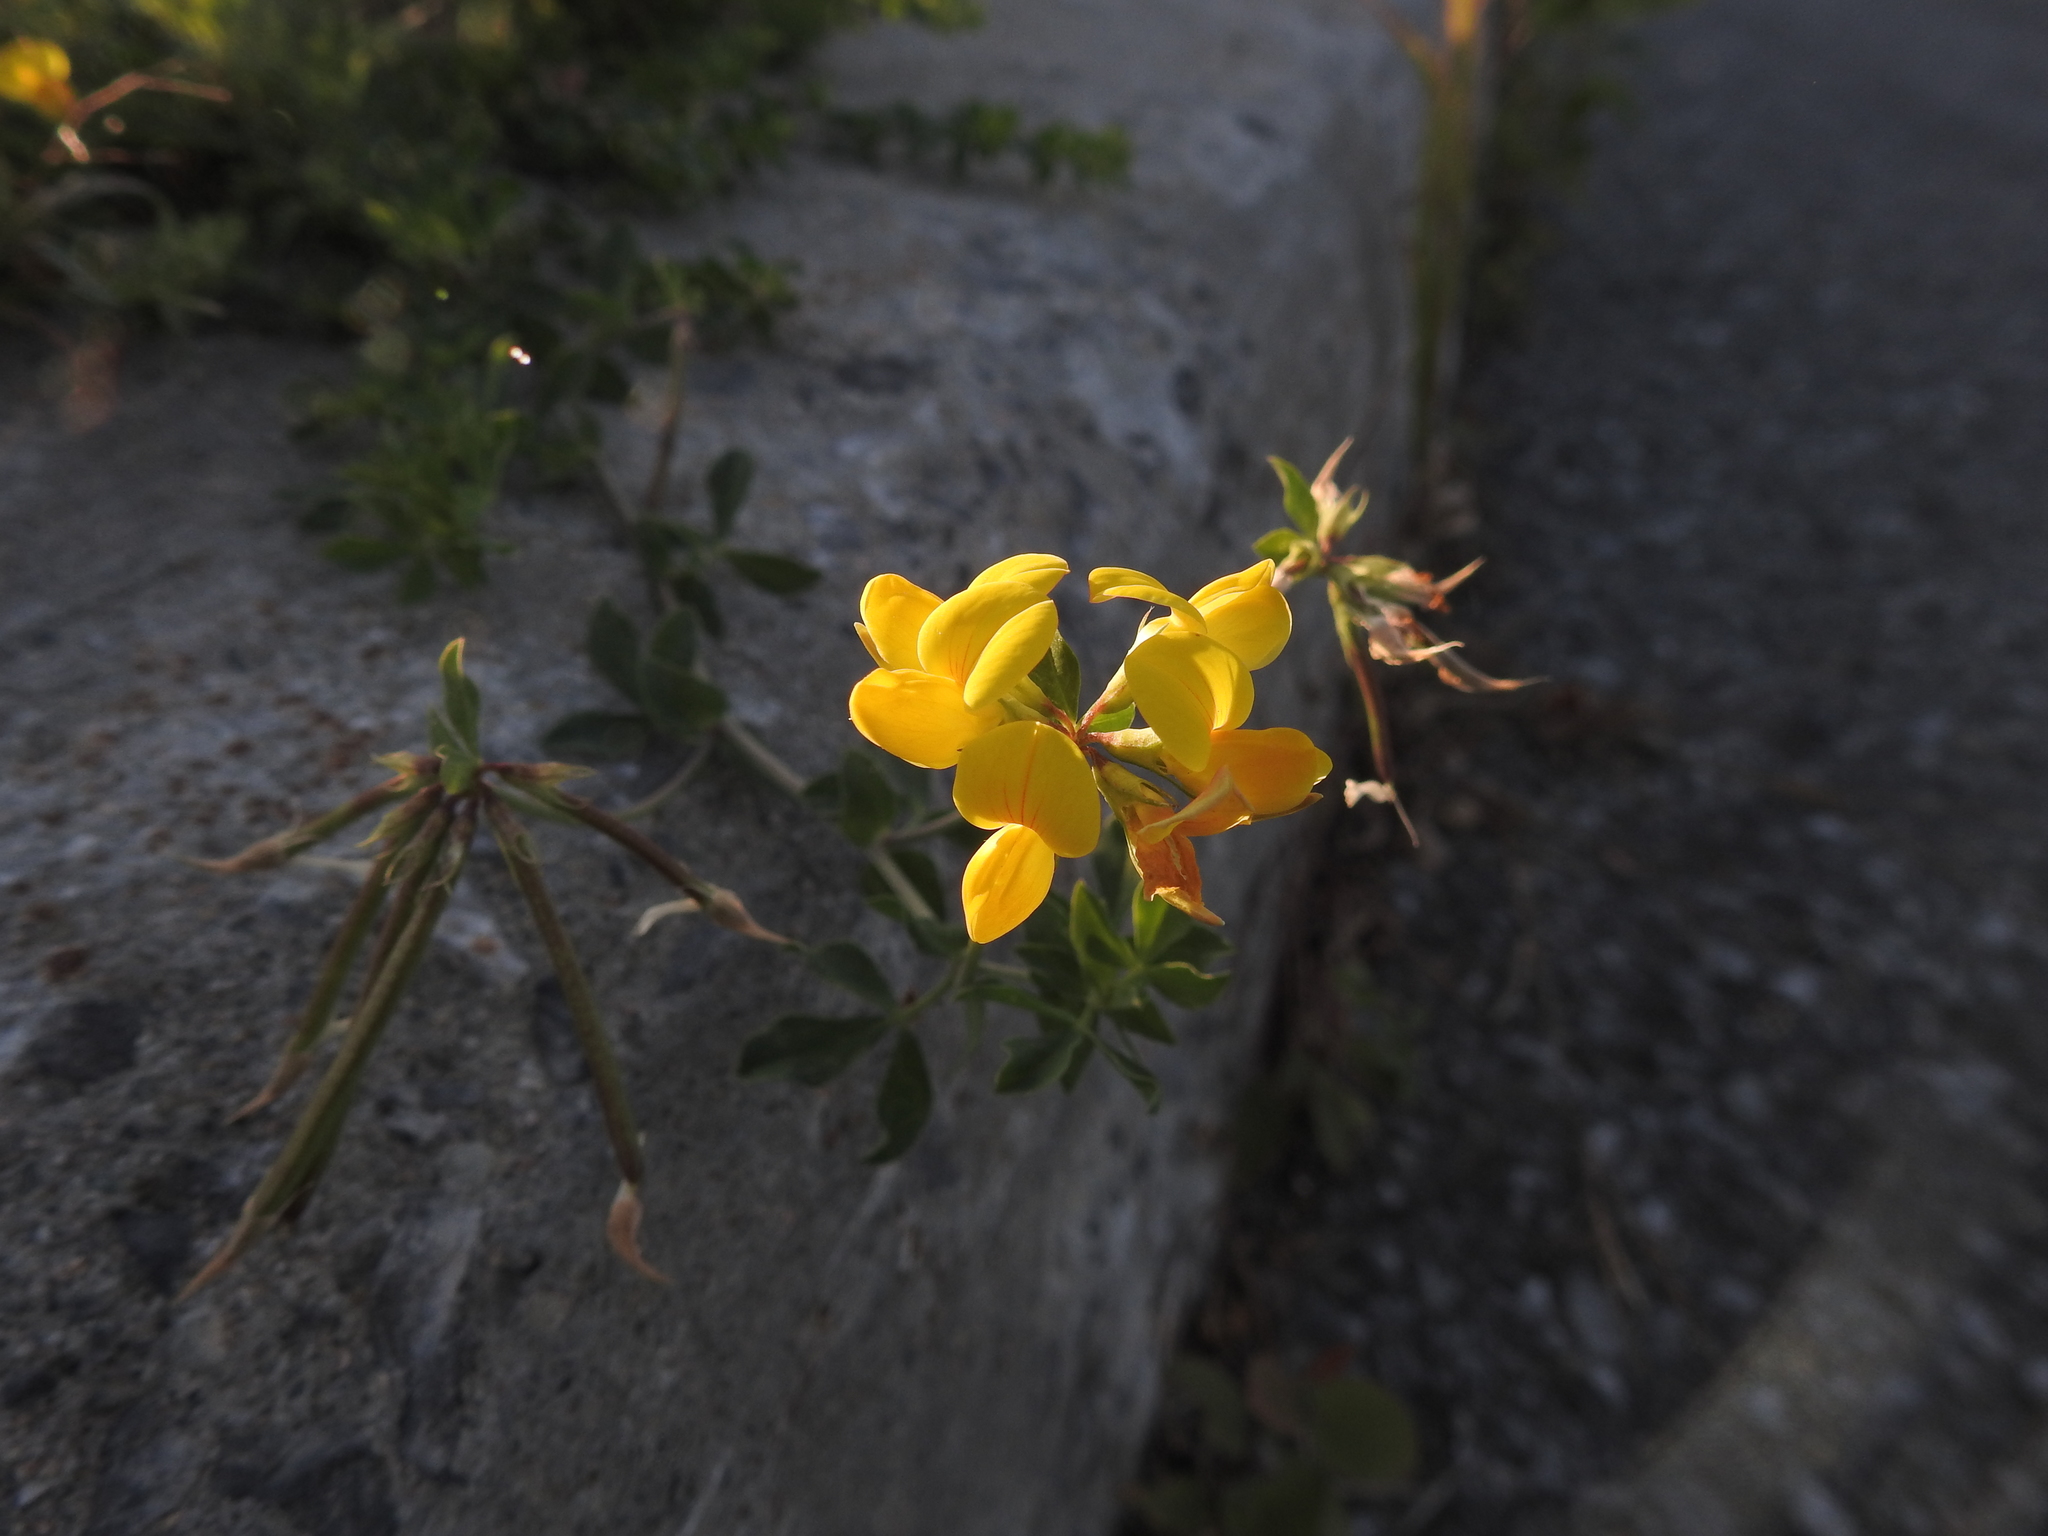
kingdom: Plantae
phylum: Tracheophyta
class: Magnoliopsida
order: Fabales
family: Fabaceae
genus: Lotus
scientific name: Lotus corniculatus
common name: Common bird's-foot-trefoil
